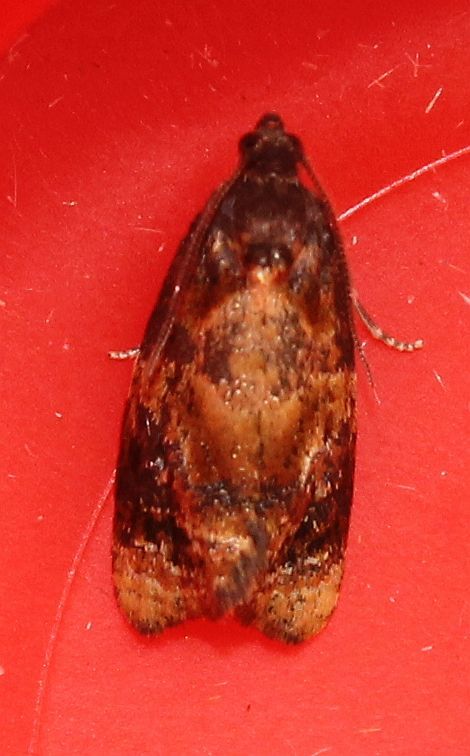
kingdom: Animalia
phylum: Arthropoda
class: Insecta
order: Lepidoptera
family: Tortricidae
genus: Ditula
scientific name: Ditula angustiorana
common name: Red-barred tortrix
